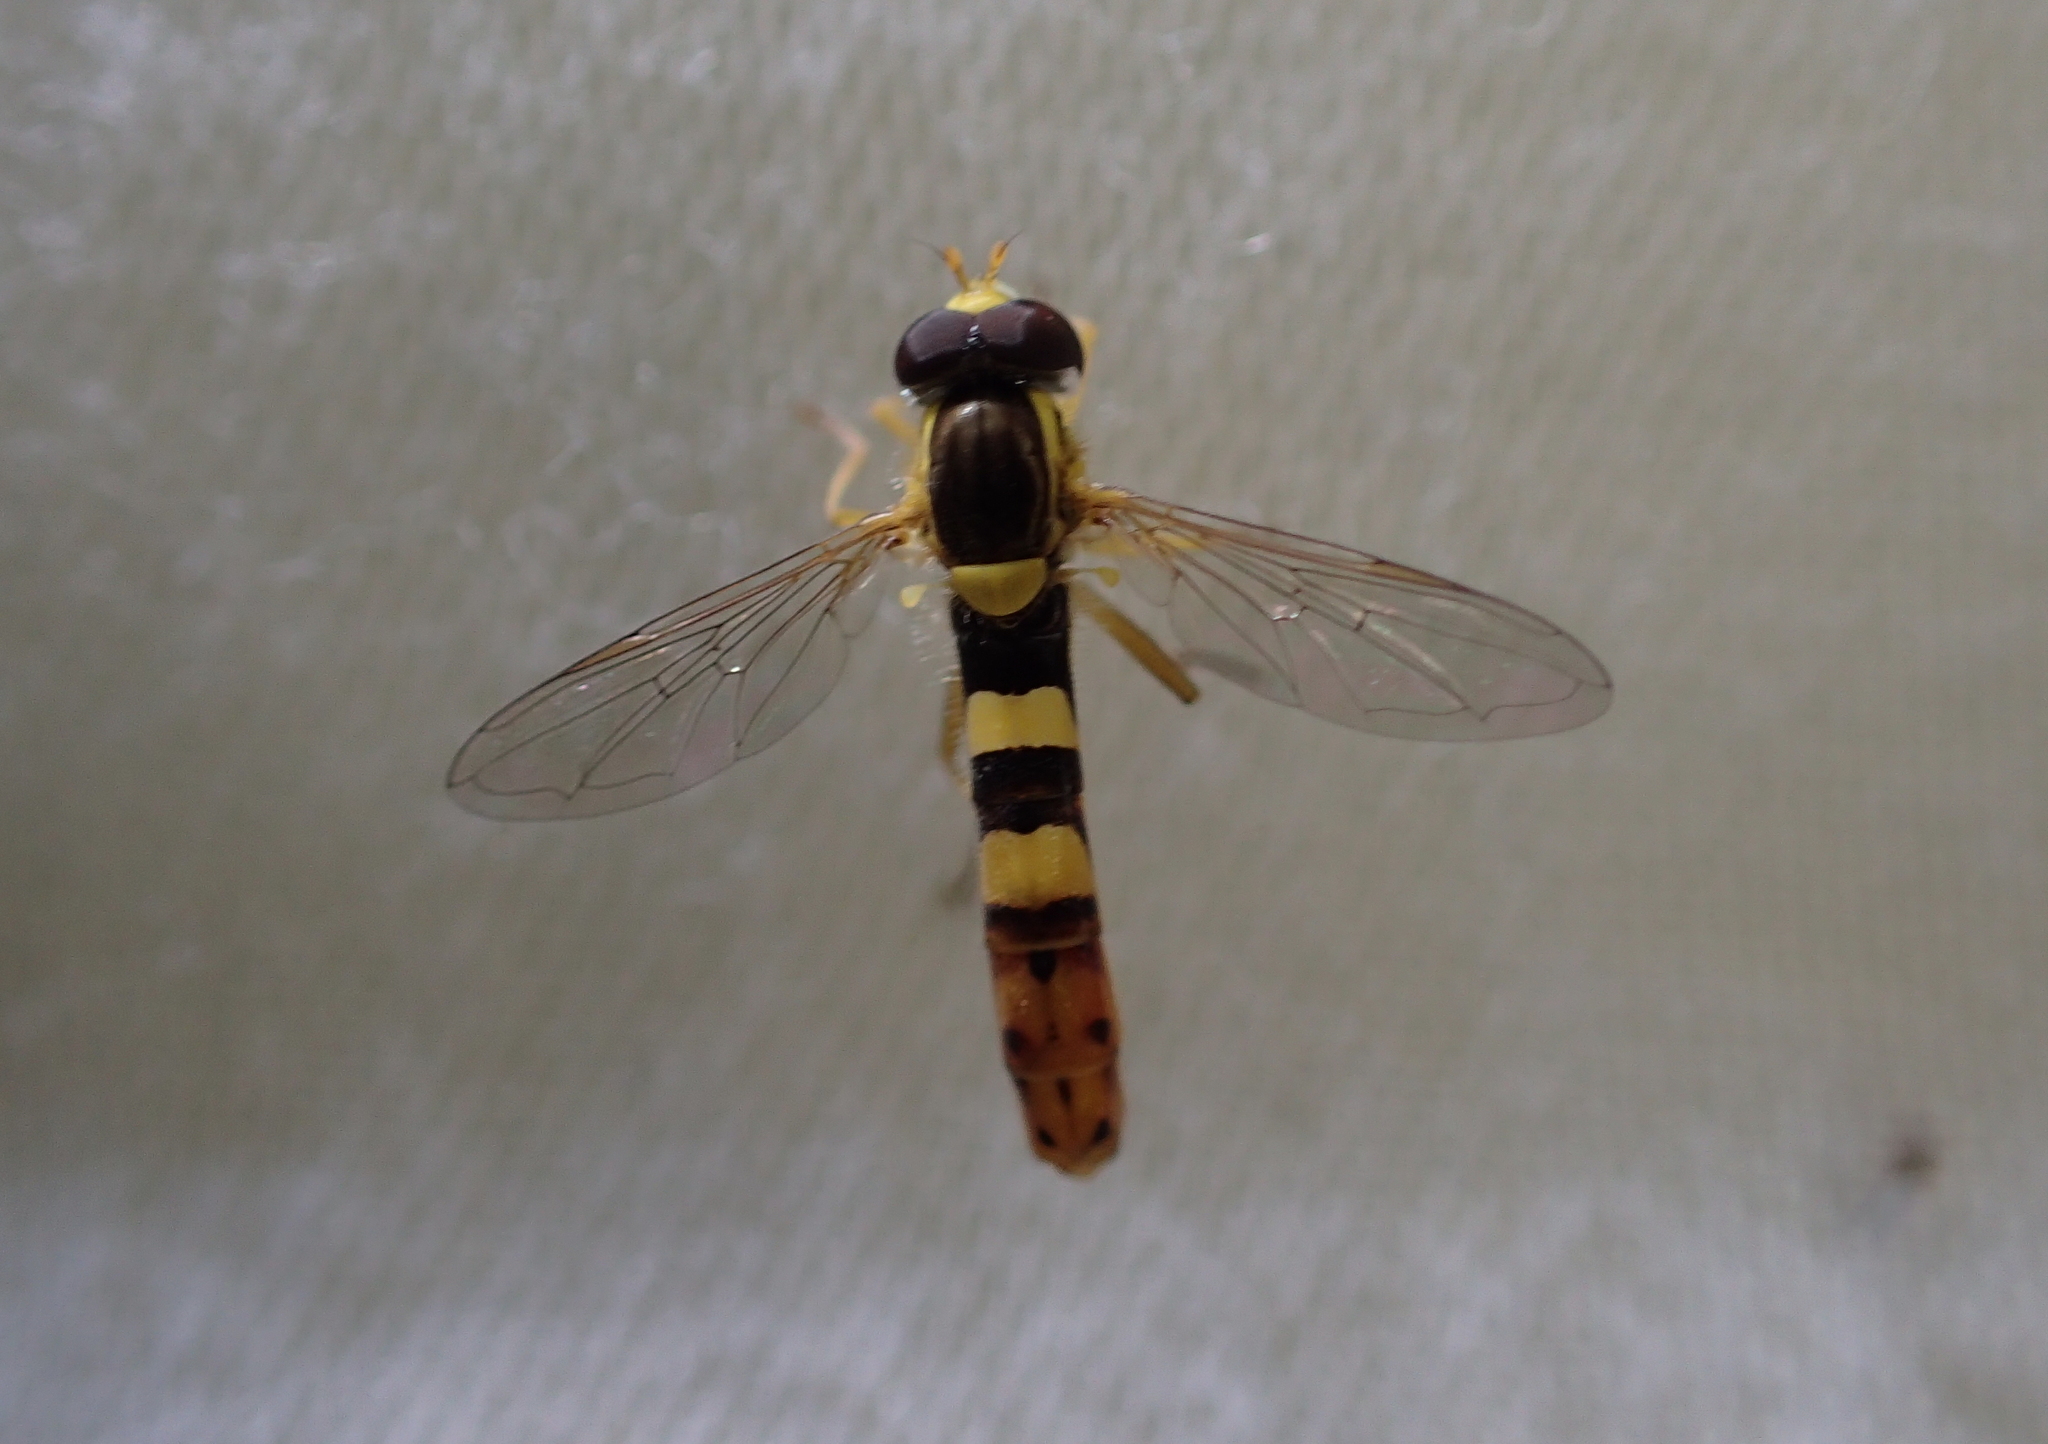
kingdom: Animalia
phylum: Arthropoda
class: Insecta
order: Diptera
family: Syrphidae
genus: Sphaerophoria
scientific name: Sphaerophoria scripta
